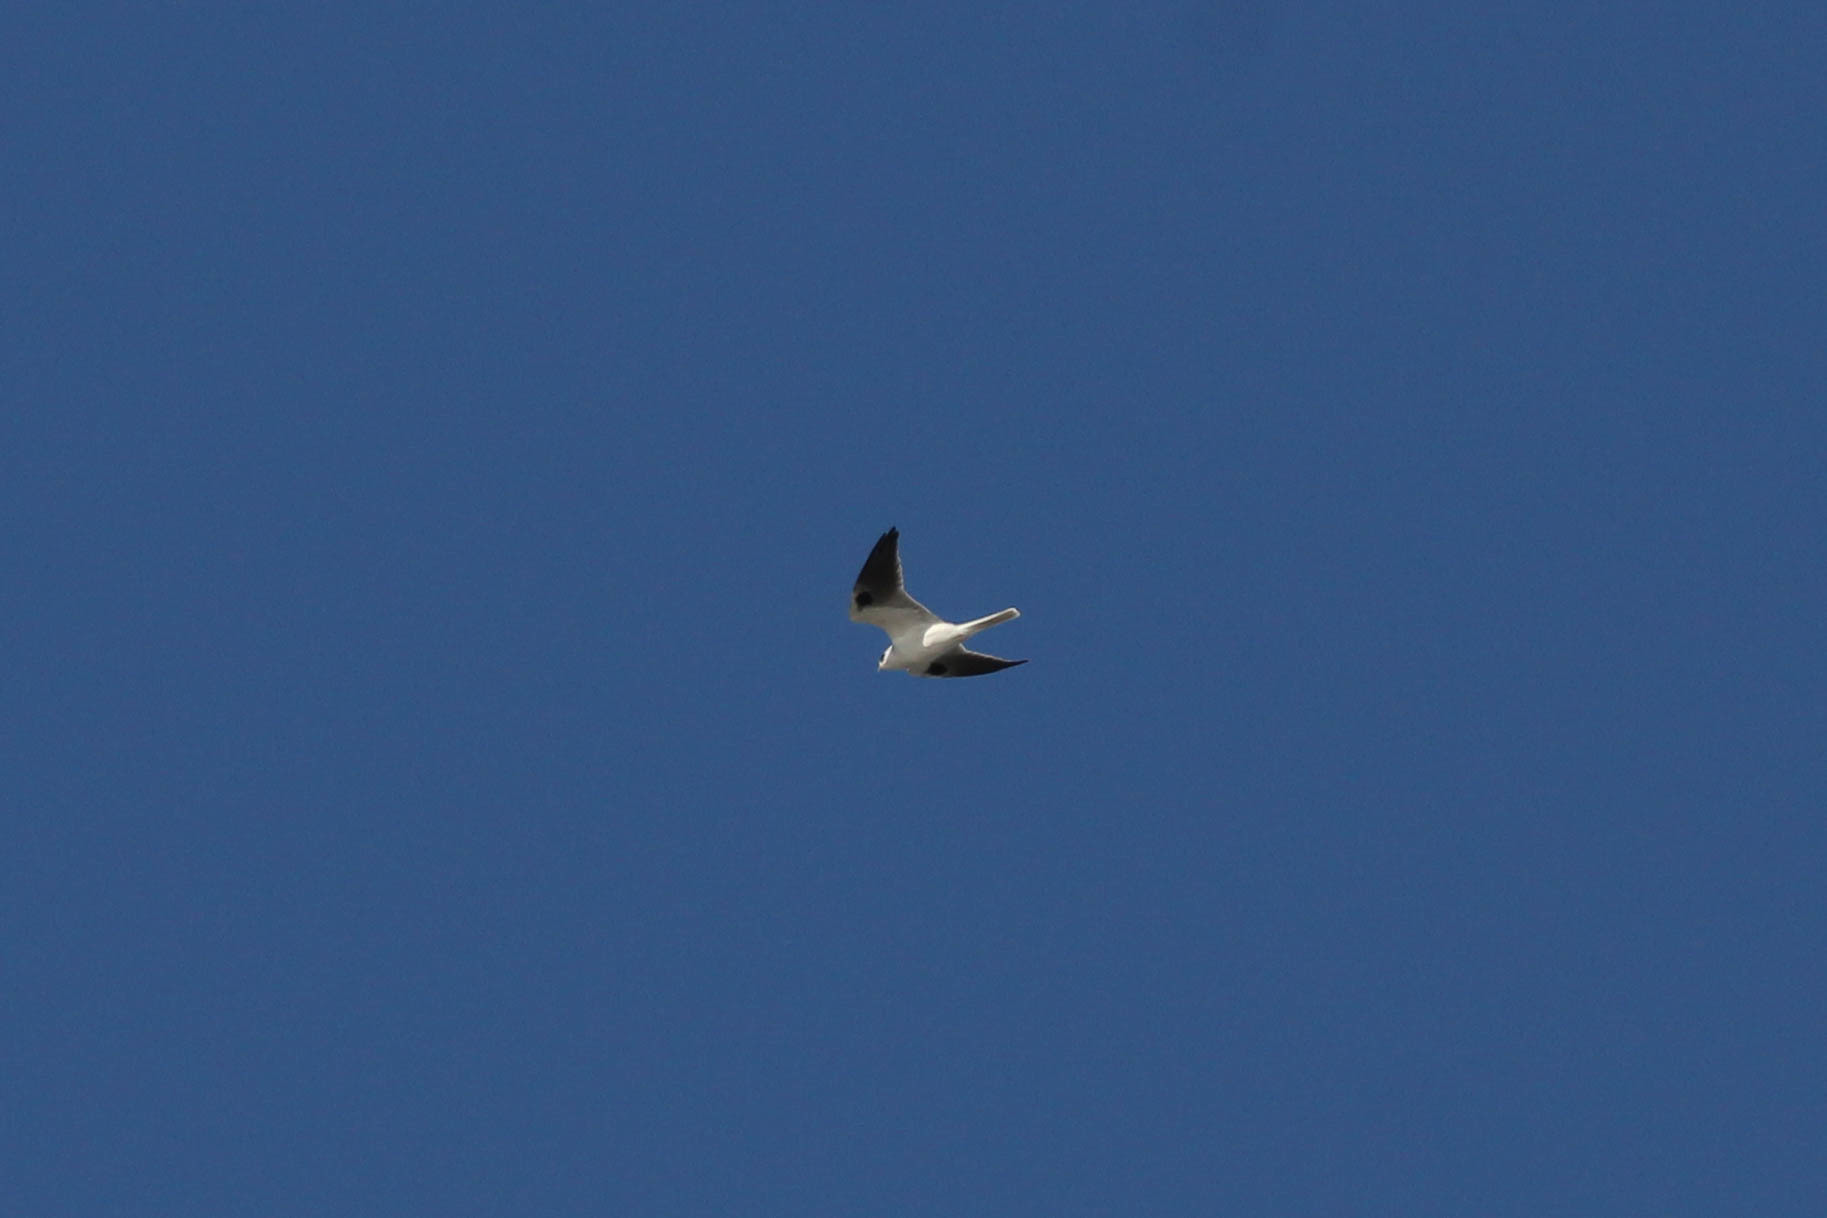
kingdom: Animalia
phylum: Chordata
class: Aves
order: Accipitriformes
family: Accipitridae
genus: Elanus
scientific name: Elanus leucurus
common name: White-tailed kite
